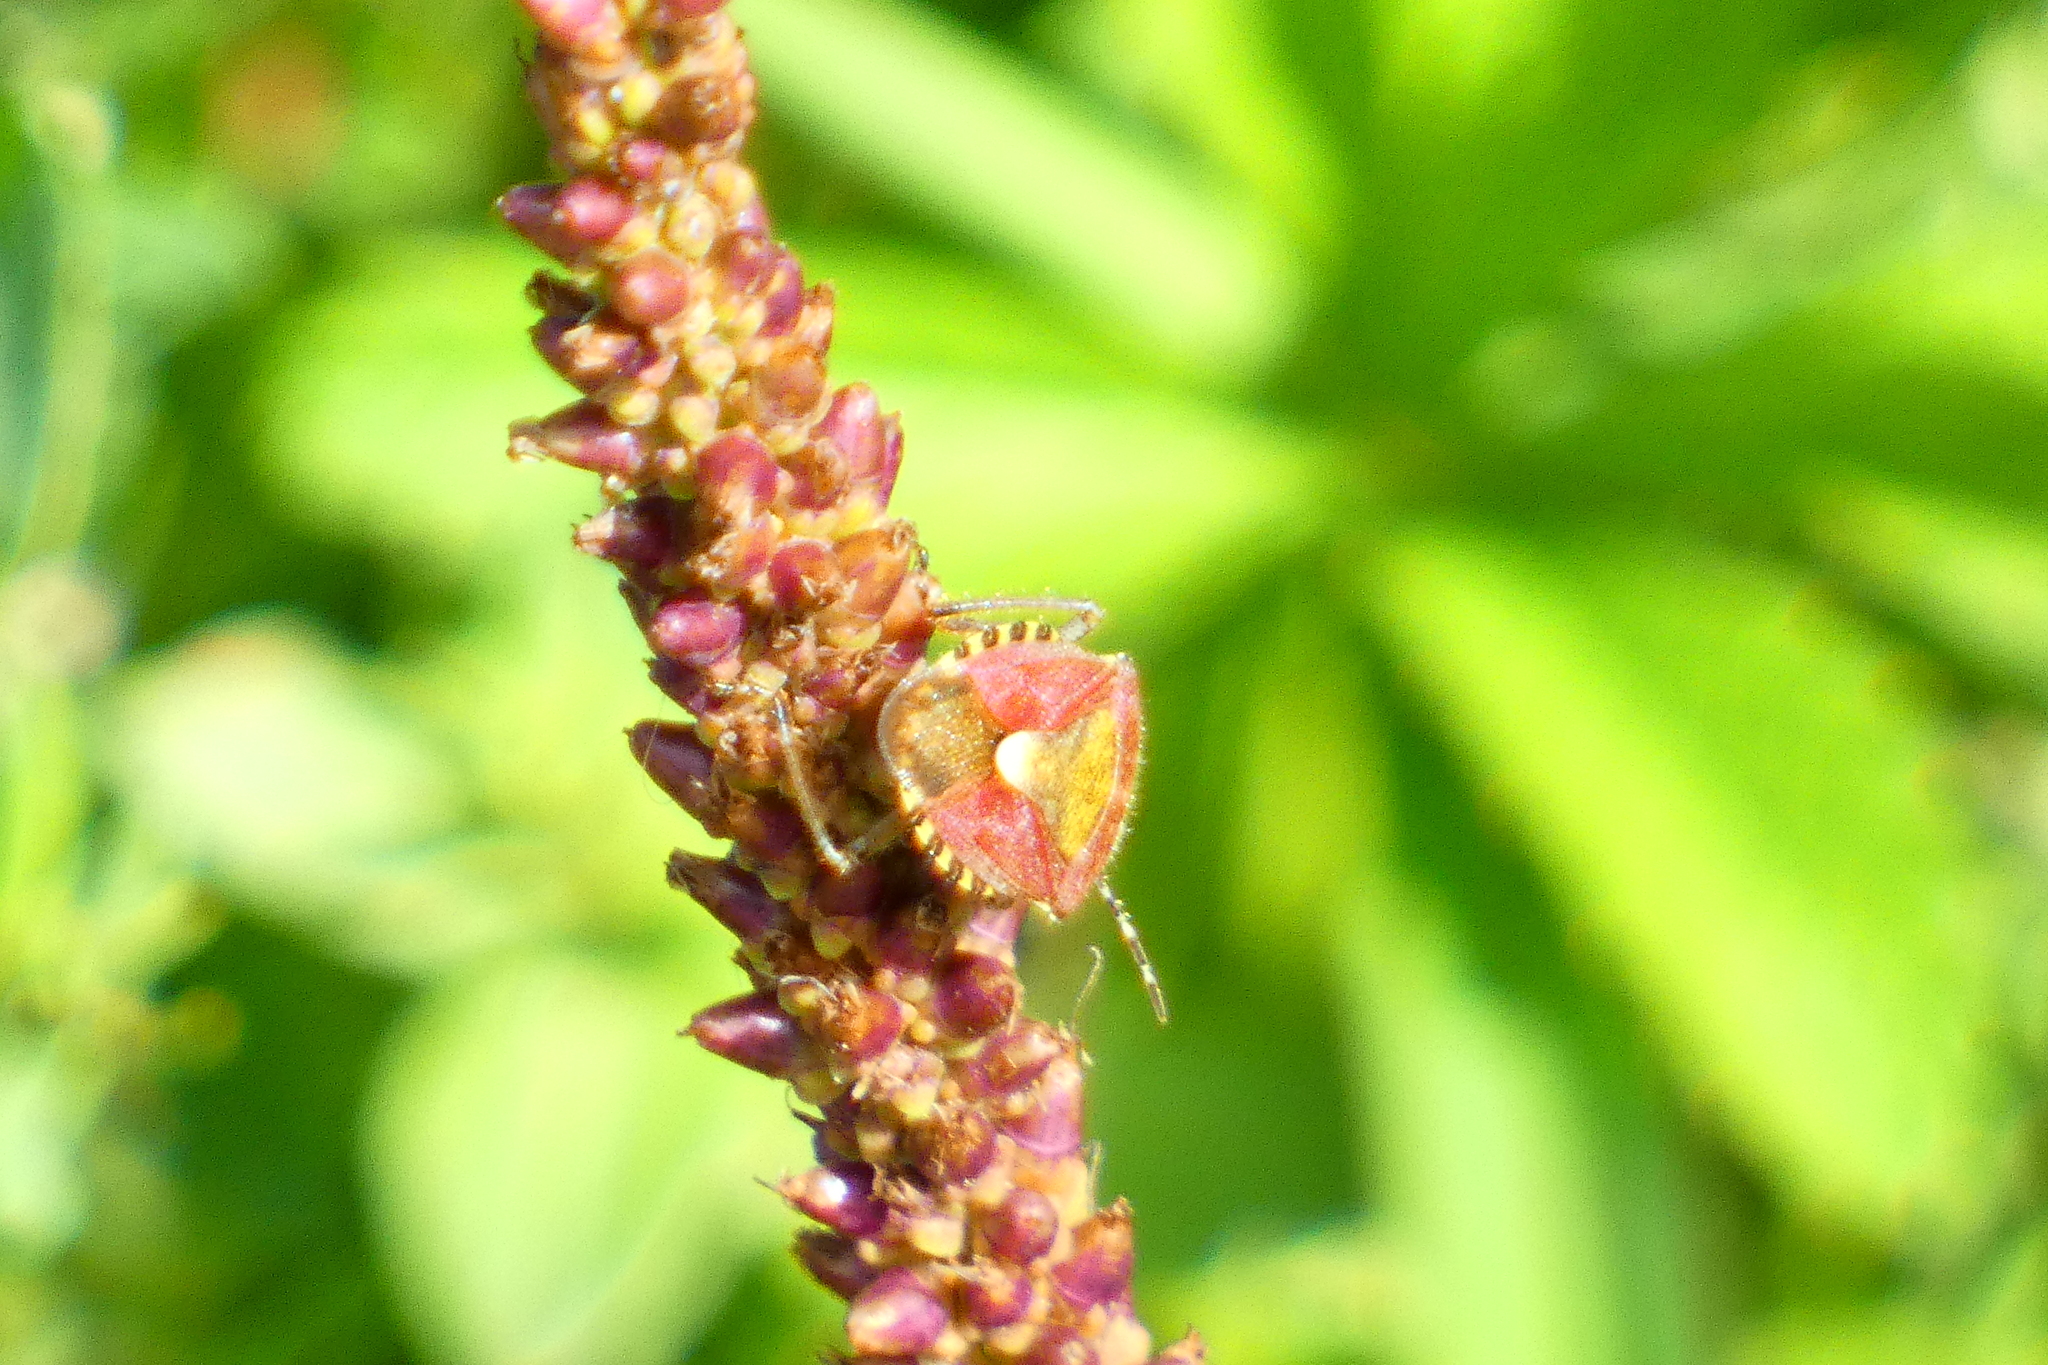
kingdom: Animalia
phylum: Arthropoda
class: Insecta
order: Hemiptera
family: Pentatomidae
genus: Dolycoris
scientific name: Dolycoris baccarum
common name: Sloe bug
